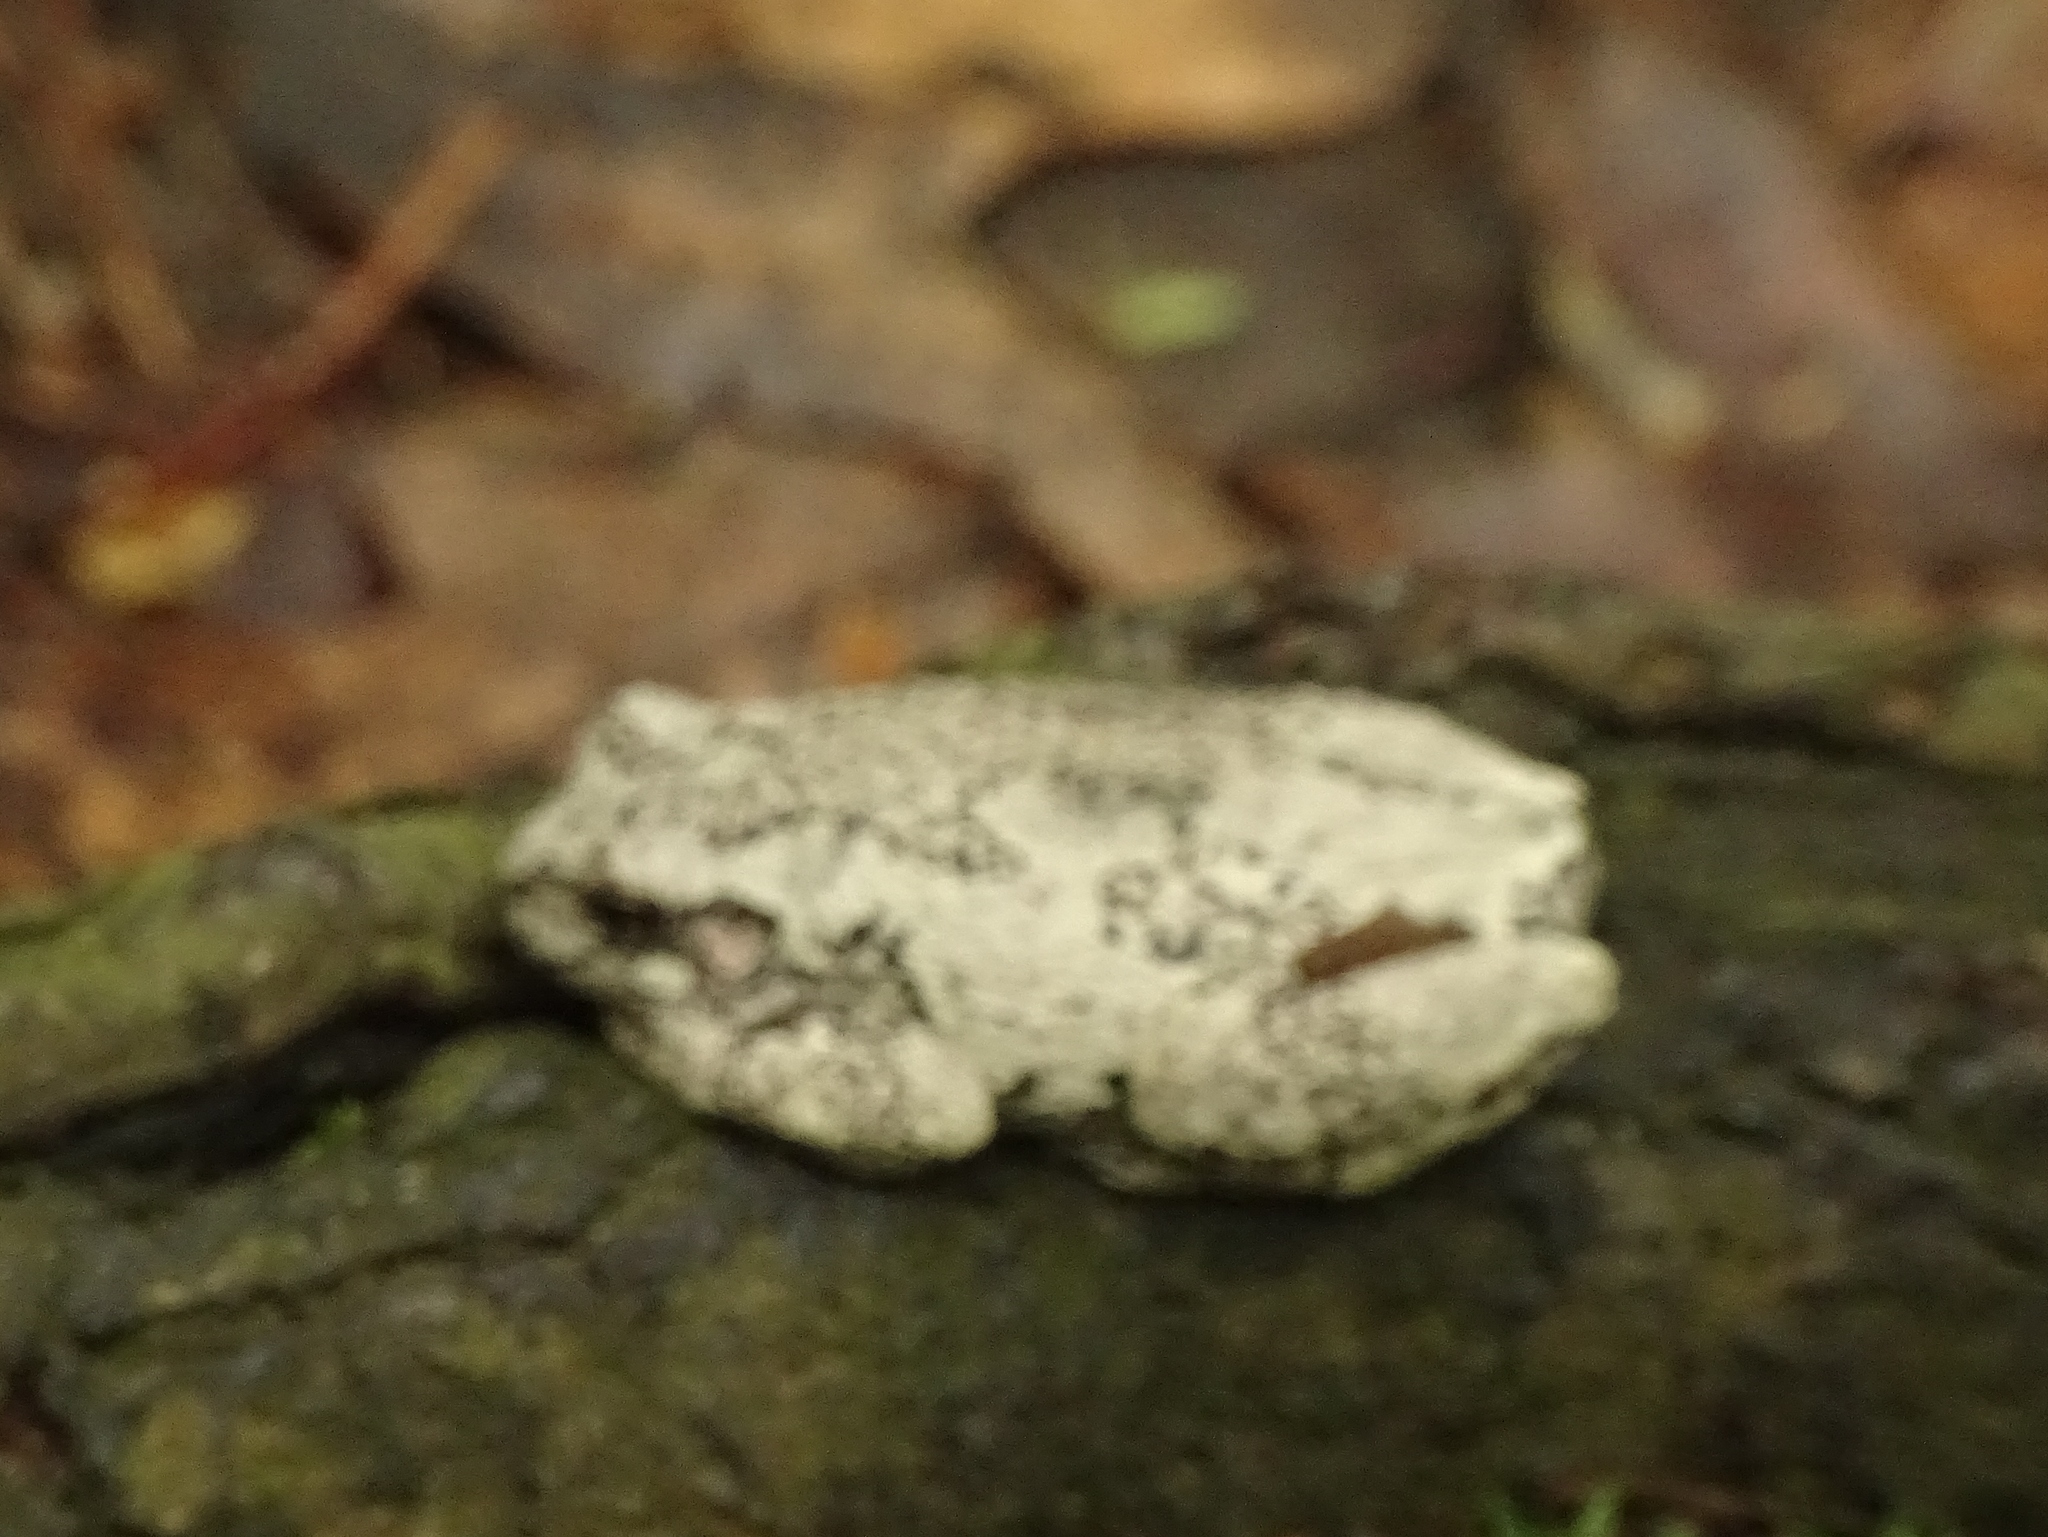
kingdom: Animalia
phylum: Chordata
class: Amphibia
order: Anura
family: Hylidae
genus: Dryophytes
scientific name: Dryophytes versicolor
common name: Gray treefrog
